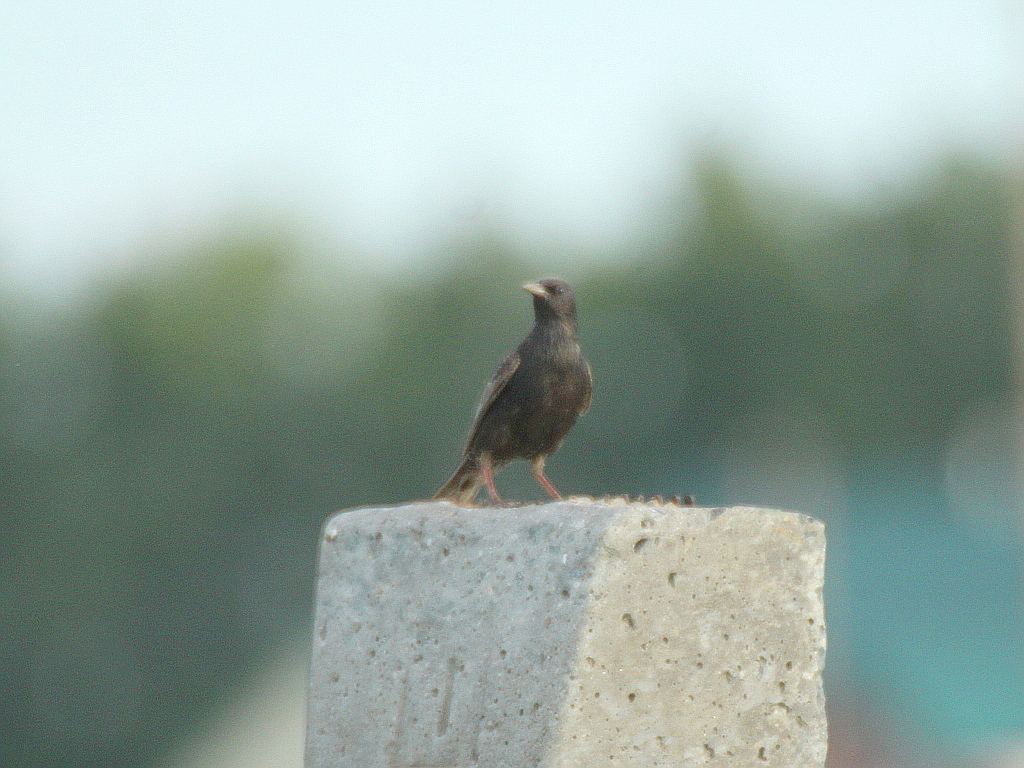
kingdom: Animalia
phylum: Chordata
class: Aves
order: Passeriformes
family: Sturnidae
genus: Sturnus
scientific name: Sturnus vulgaris
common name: Common starling
